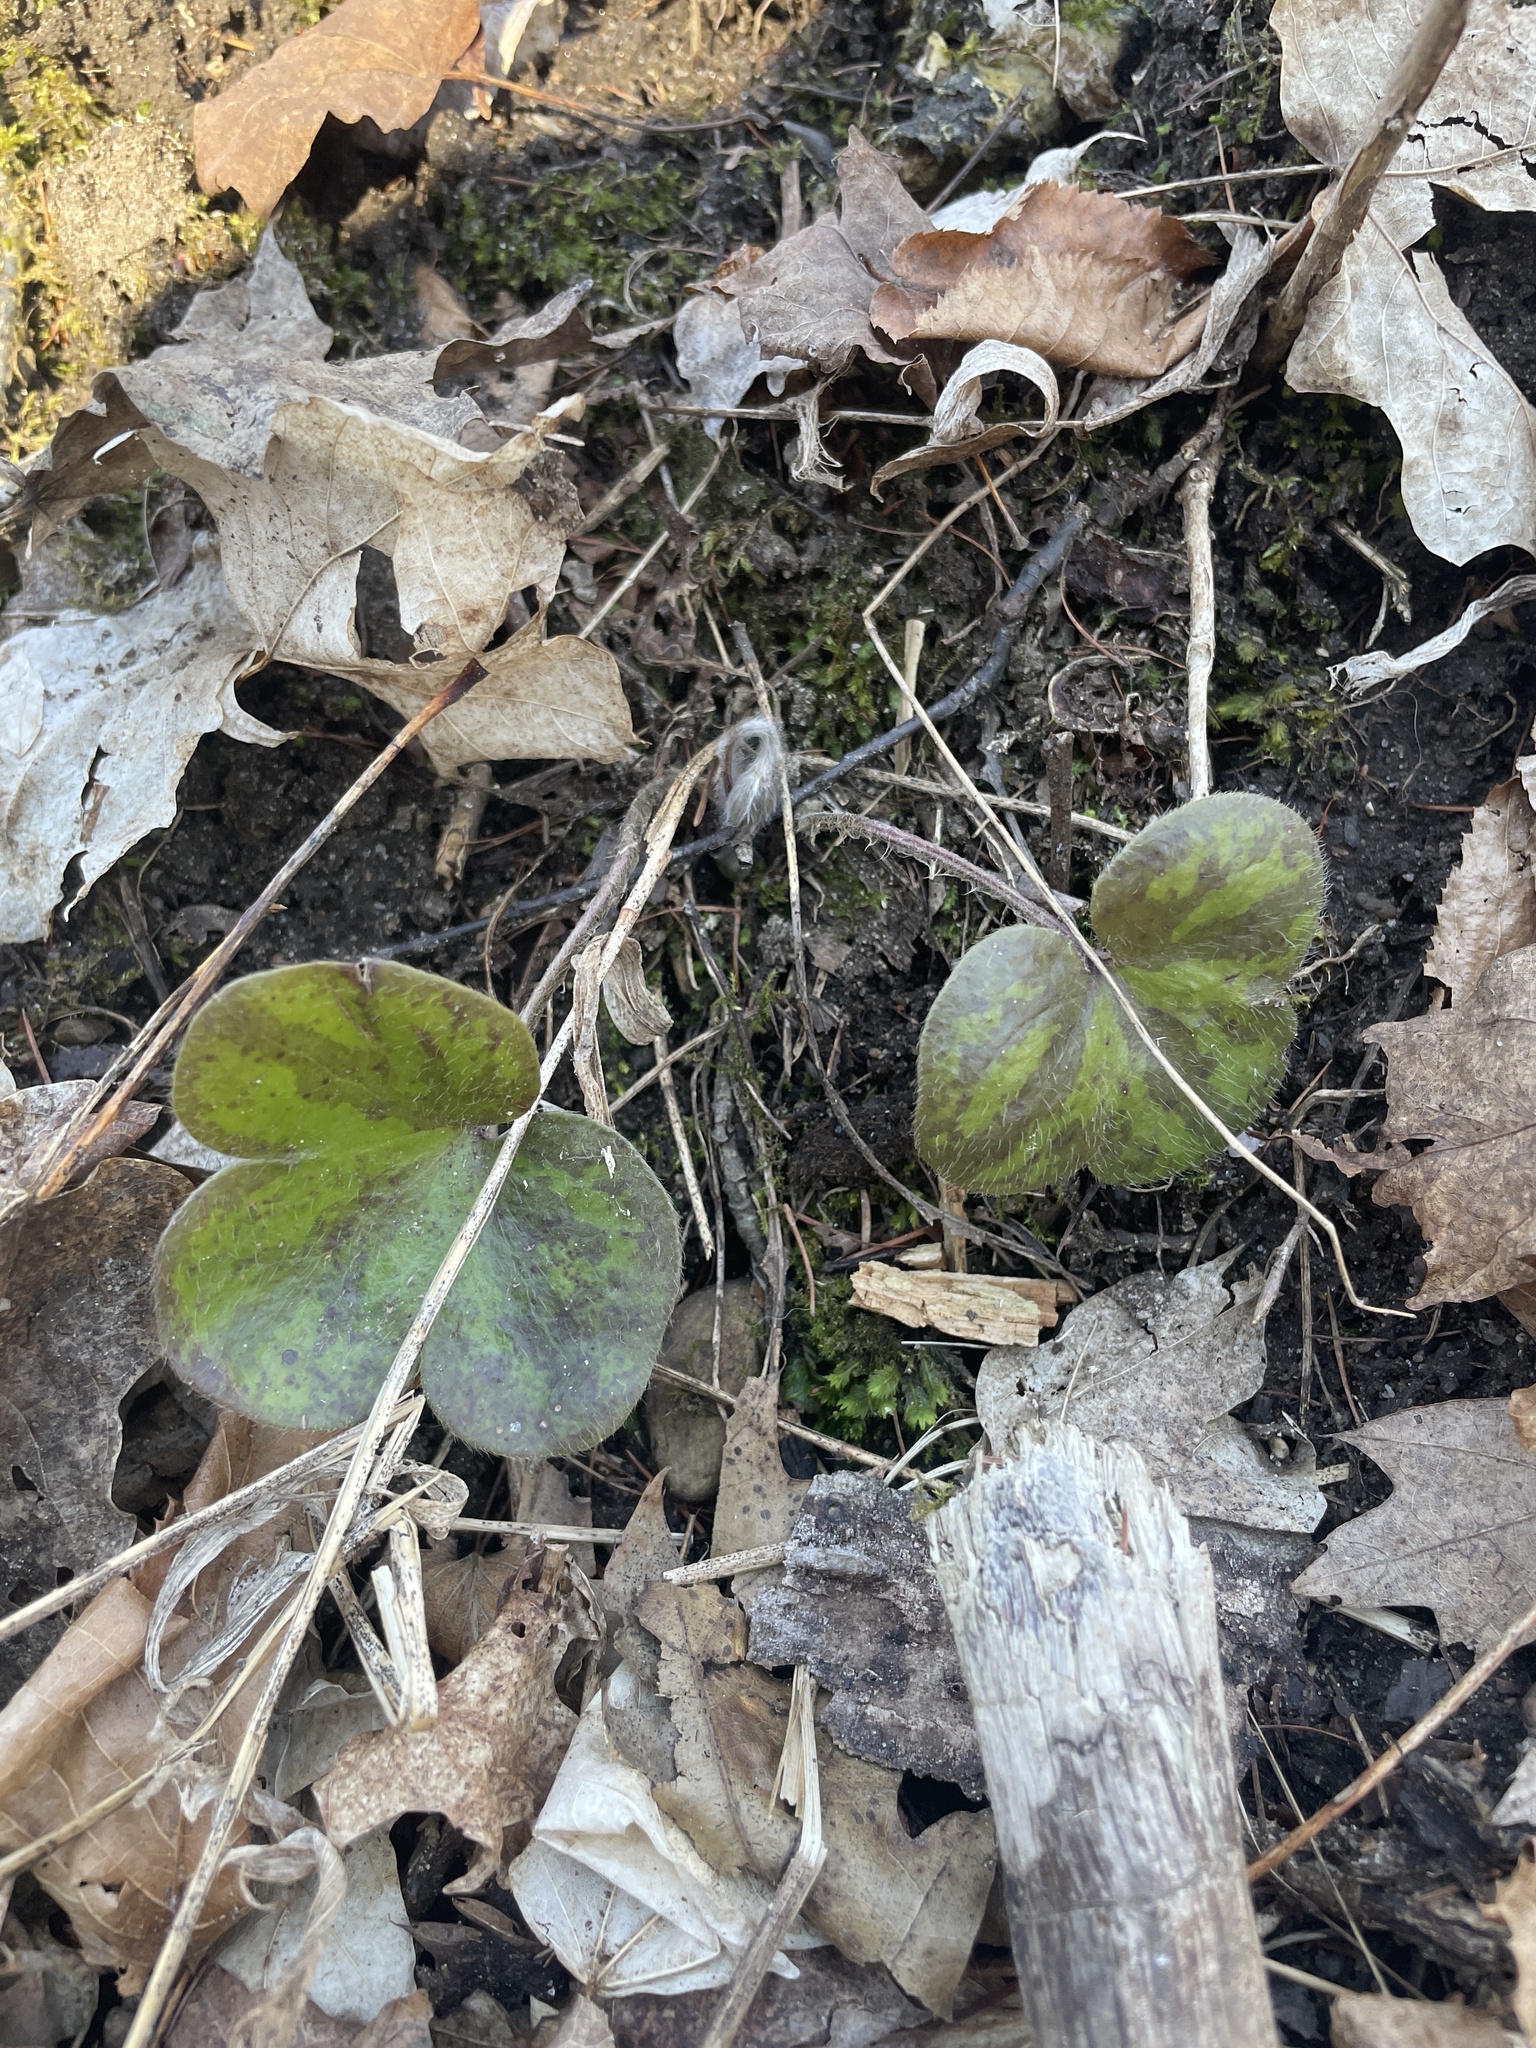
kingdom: Plantae
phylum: Tracheophyta
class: Magnoliopsida
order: Ranunculales
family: Ranunculaceae
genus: Hepatica
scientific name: Hepatica americana
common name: American hepatica
